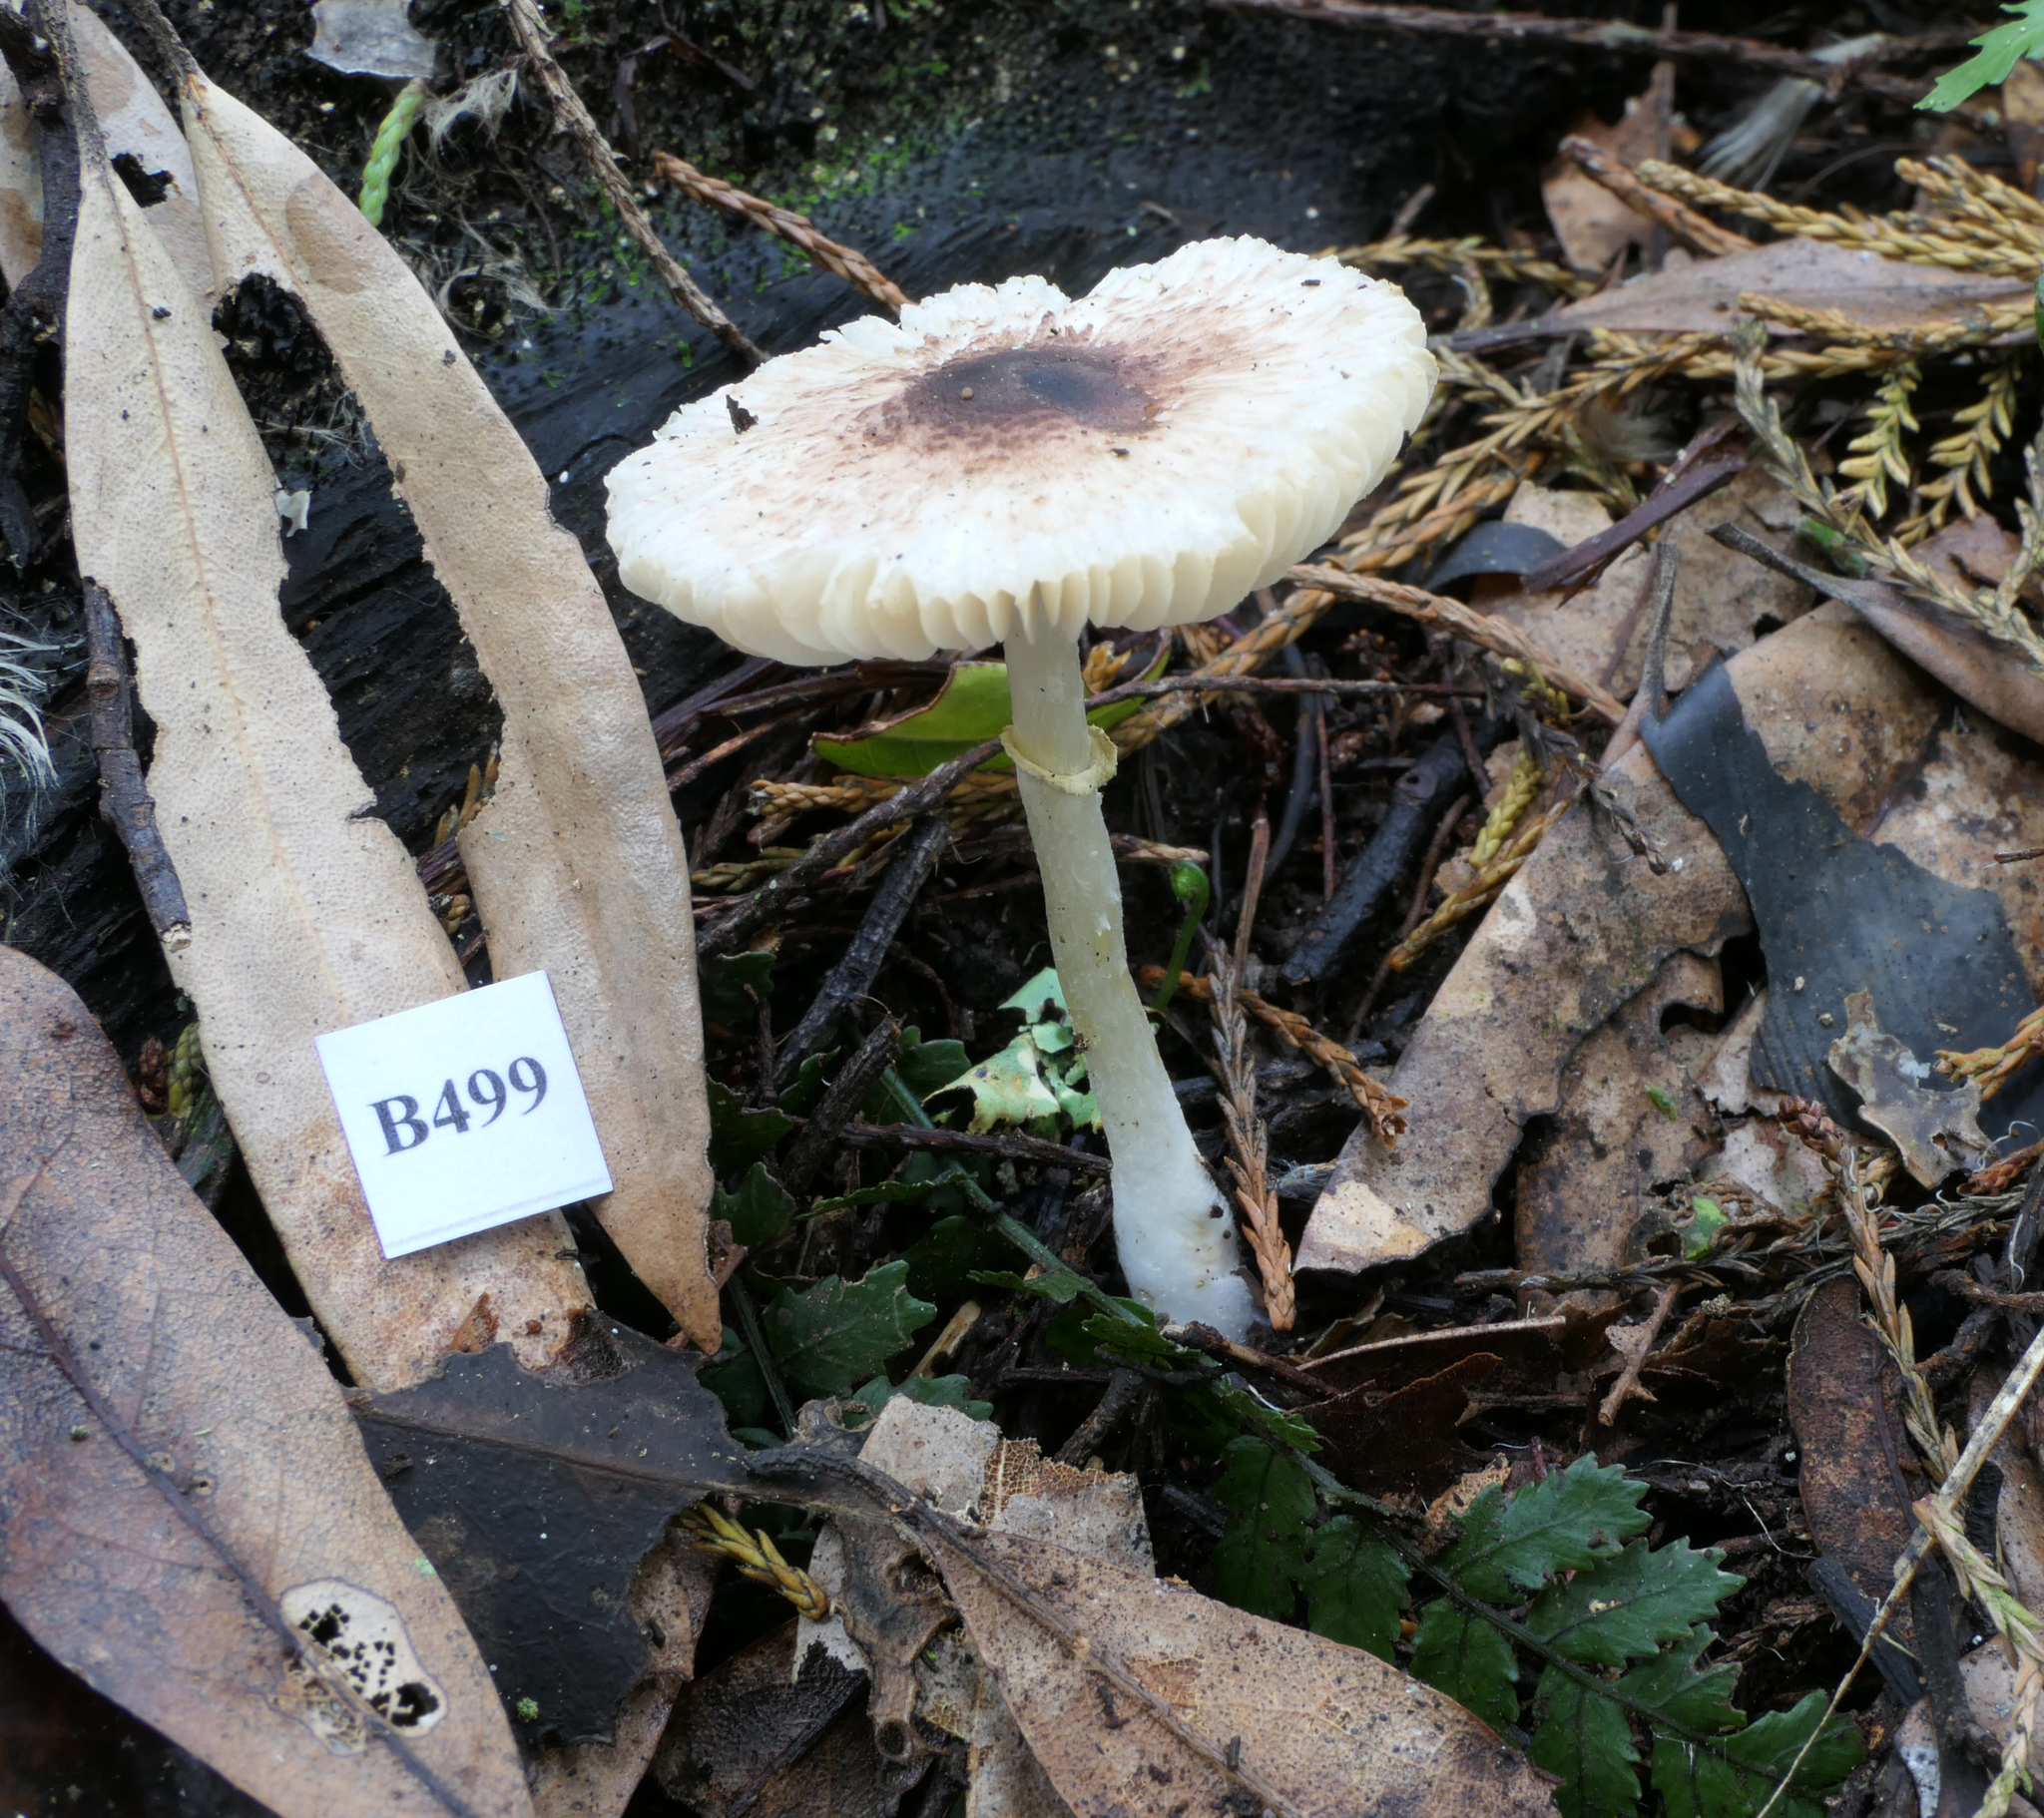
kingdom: Fungi
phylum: Basidiomycota
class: Agaricomycetes
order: Agaricales
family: Agaricaceae
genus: Leucoagaricus
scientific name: Leucoagaricus viriditinctus
